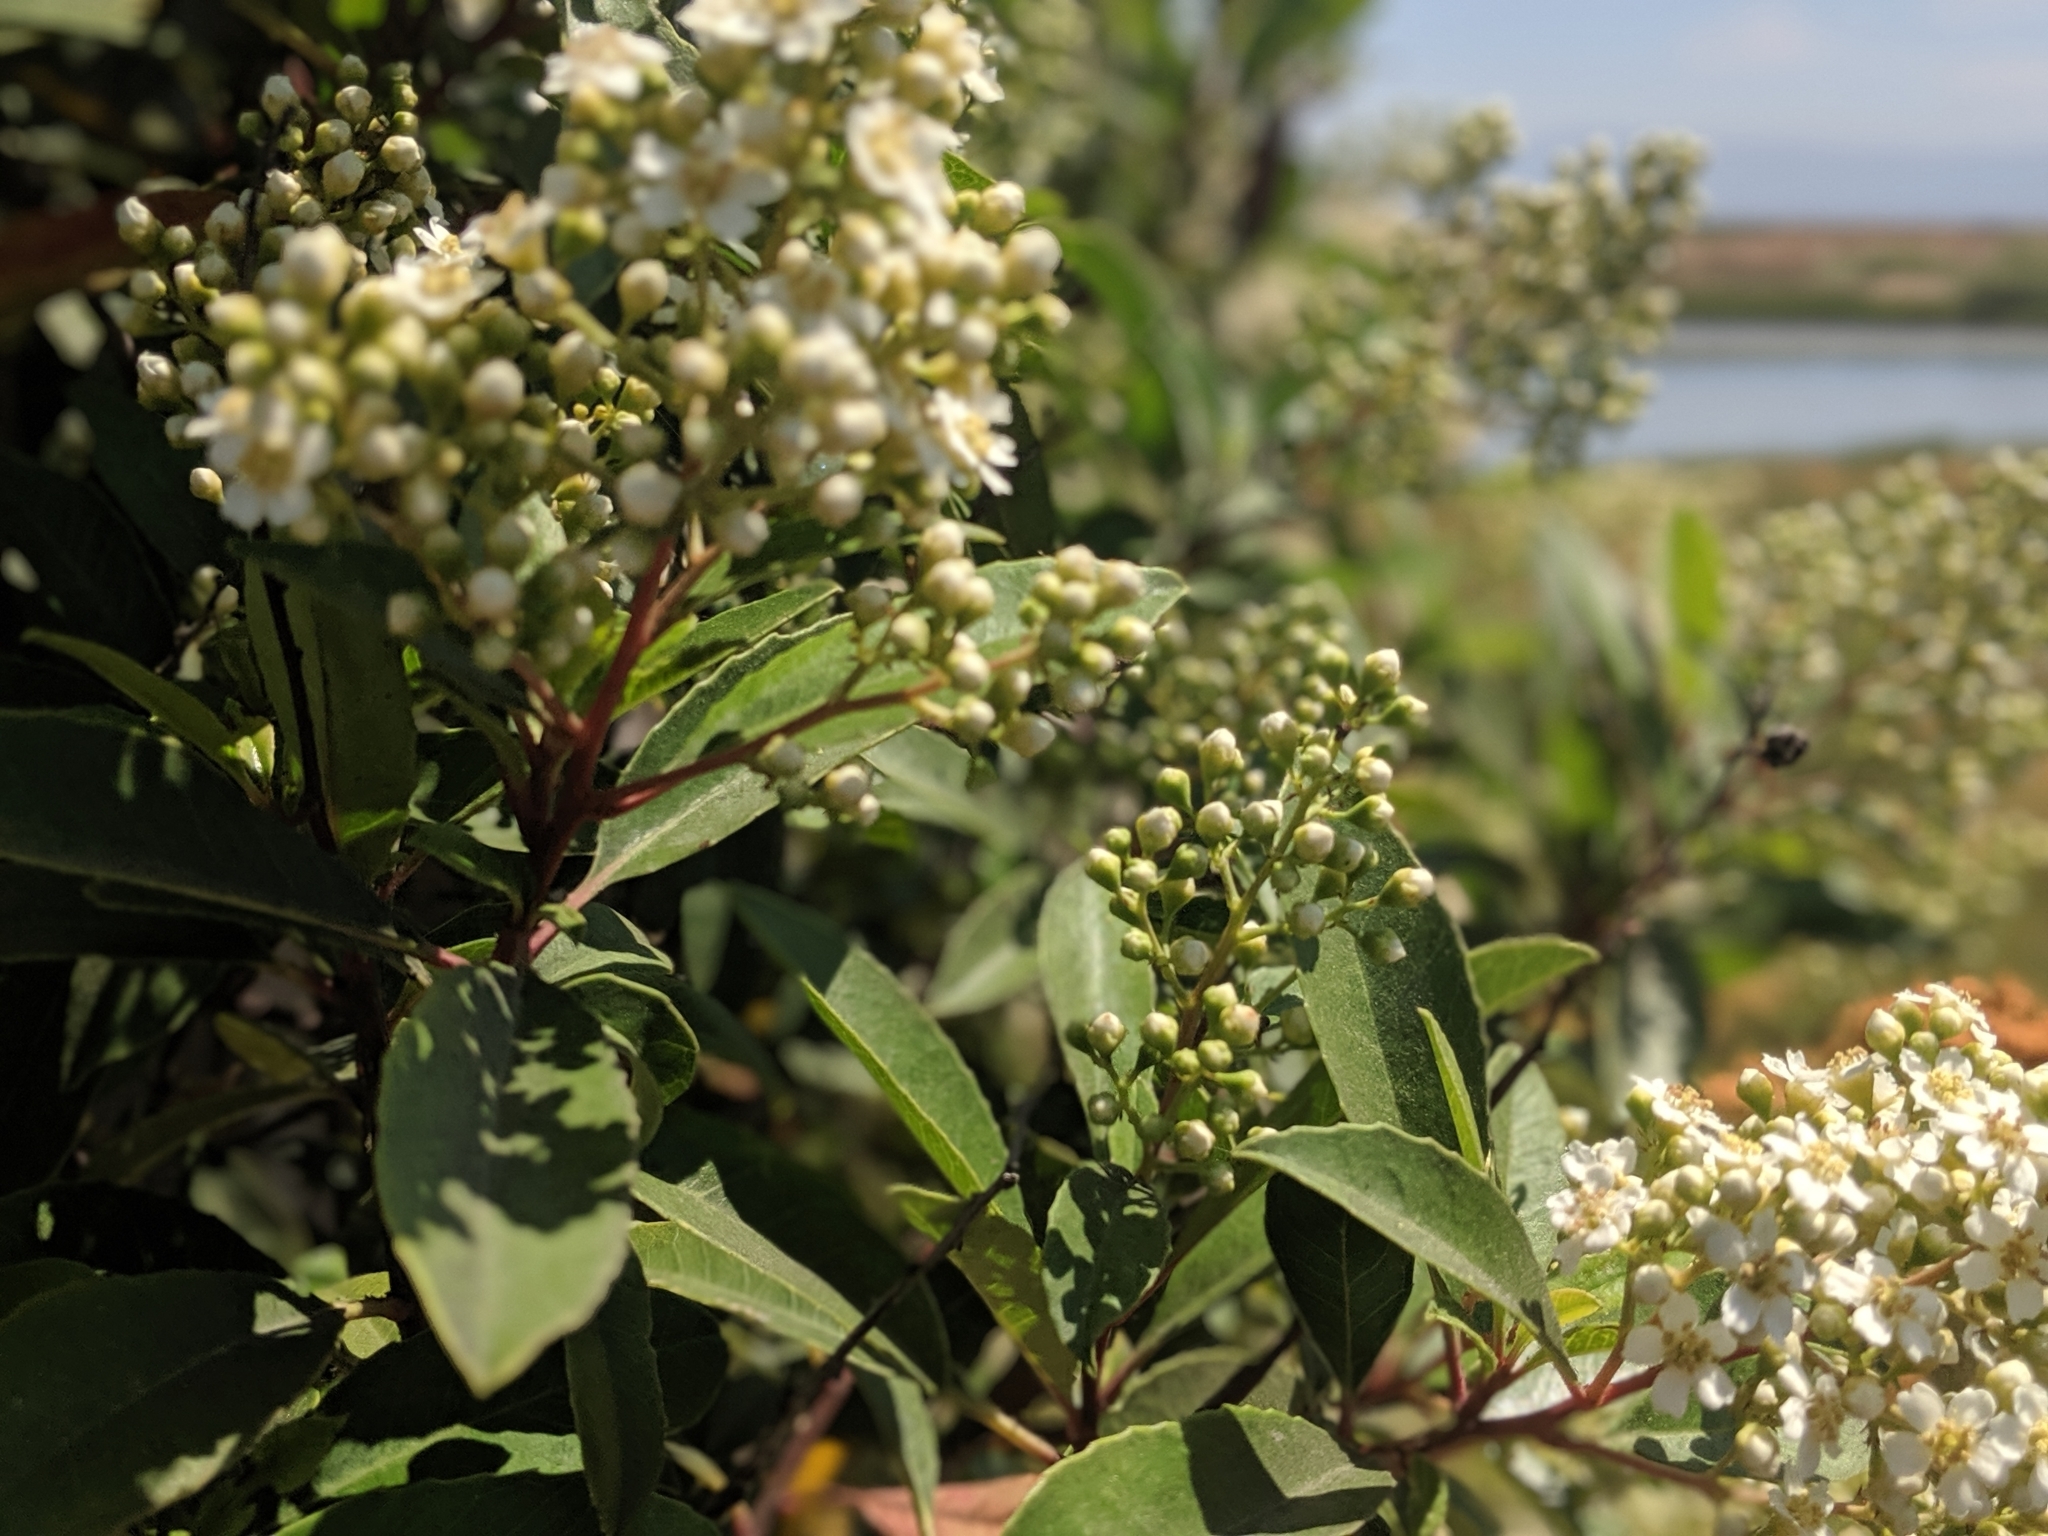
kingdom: Plantae
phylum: Tracheophyta
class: Magnoliopsida
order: Rosales
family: Rosaceae
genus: Heteromeles
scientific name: Heteromeles arbutifolia
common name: California-holly
